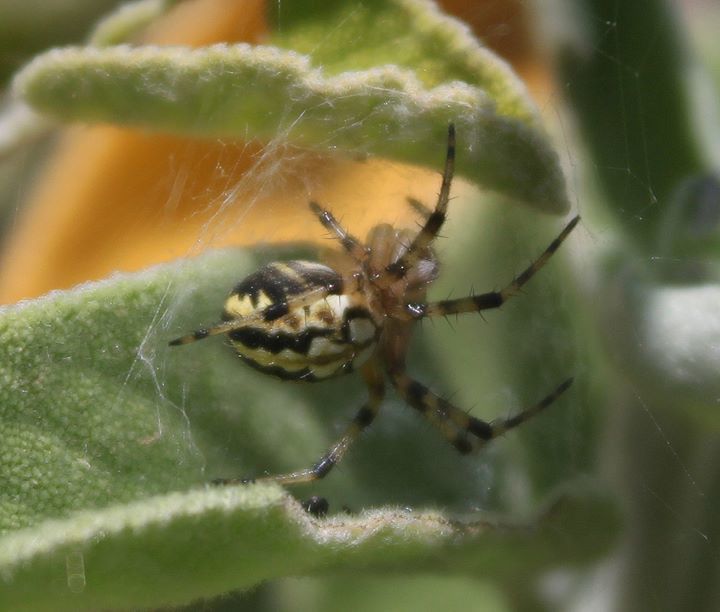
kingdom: Animalia
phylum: Arthropoda
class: Arachnida
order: Araneae
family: Araneidae
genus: Neoscona
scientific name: Neoscona adianta
